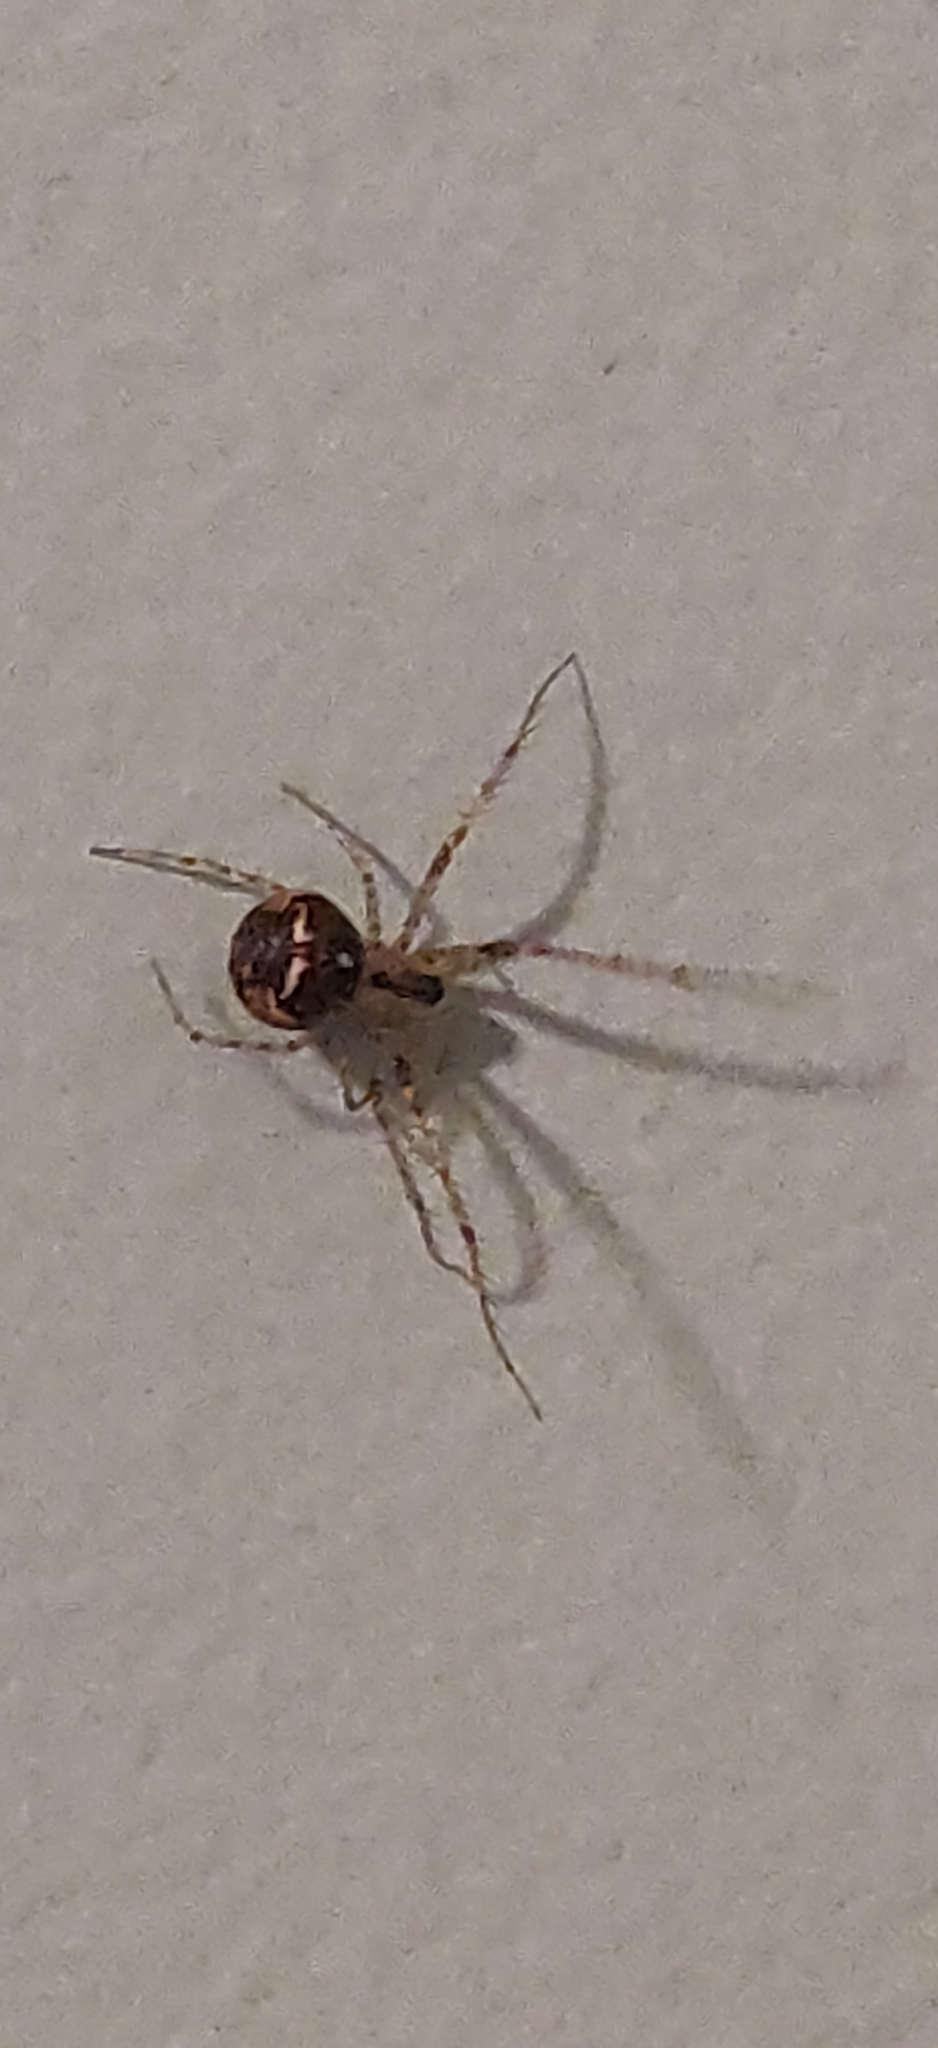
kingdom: Animalia
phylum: Arthropoda
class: Arachnida
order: Araneae
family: Mimetidae
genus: Mimetus
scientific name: Mimetus puritanus
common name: Common pirate spider
